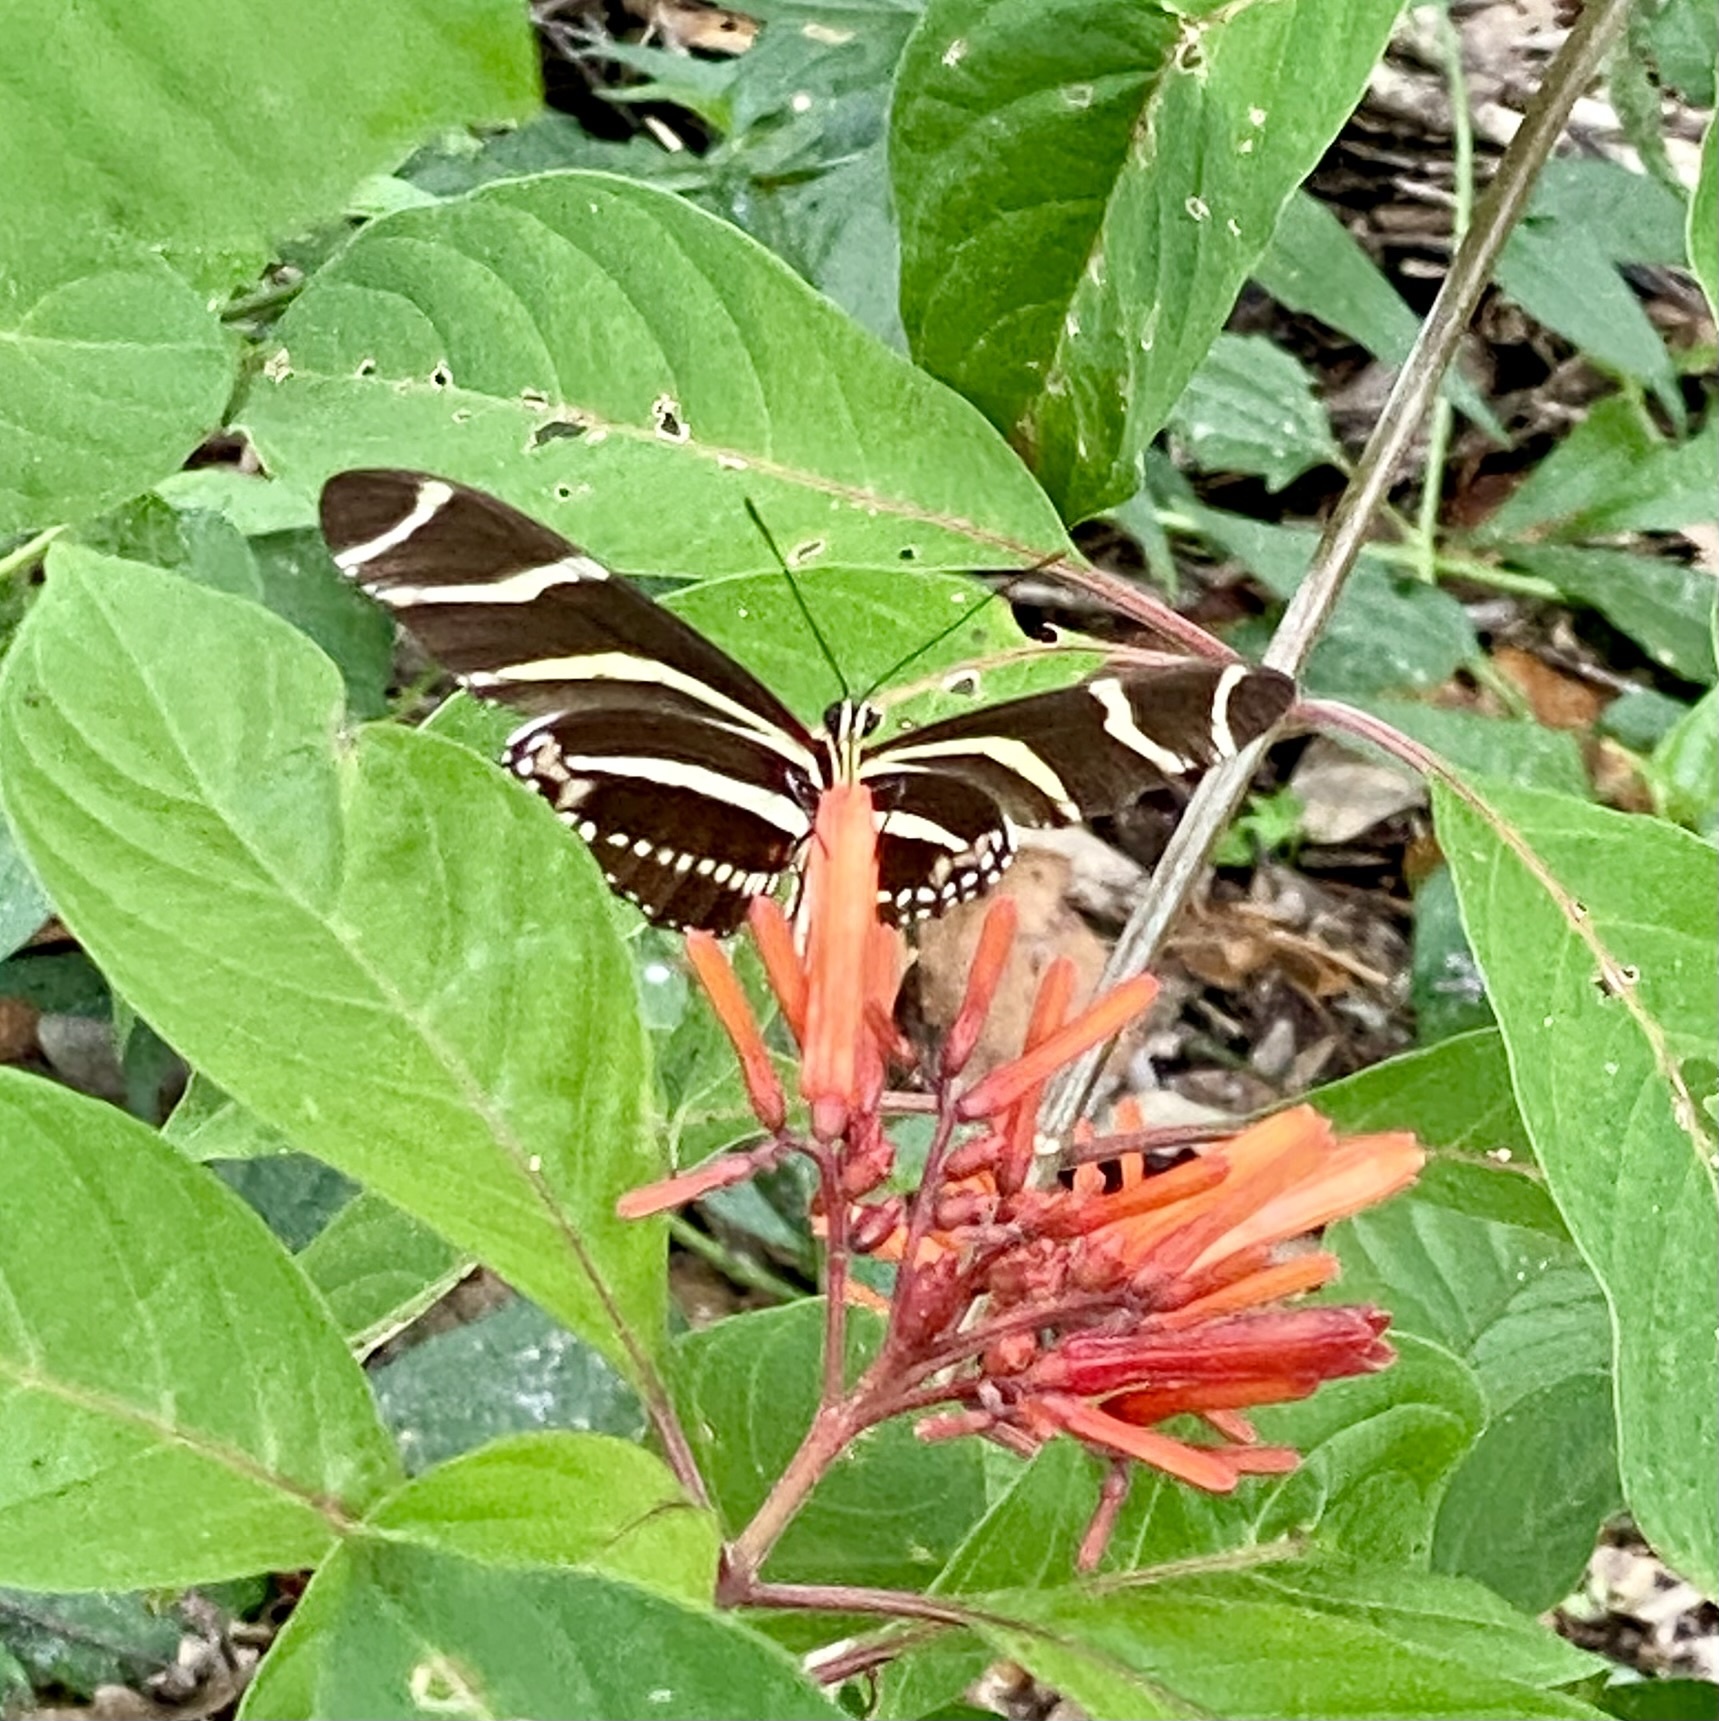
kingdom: Animalia
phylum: Arthropoda
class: Insecta
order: Lepidoptera
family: Nymphalidae
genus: Heliconius
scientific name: Heliconius charithonia
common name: Zebra long wing
